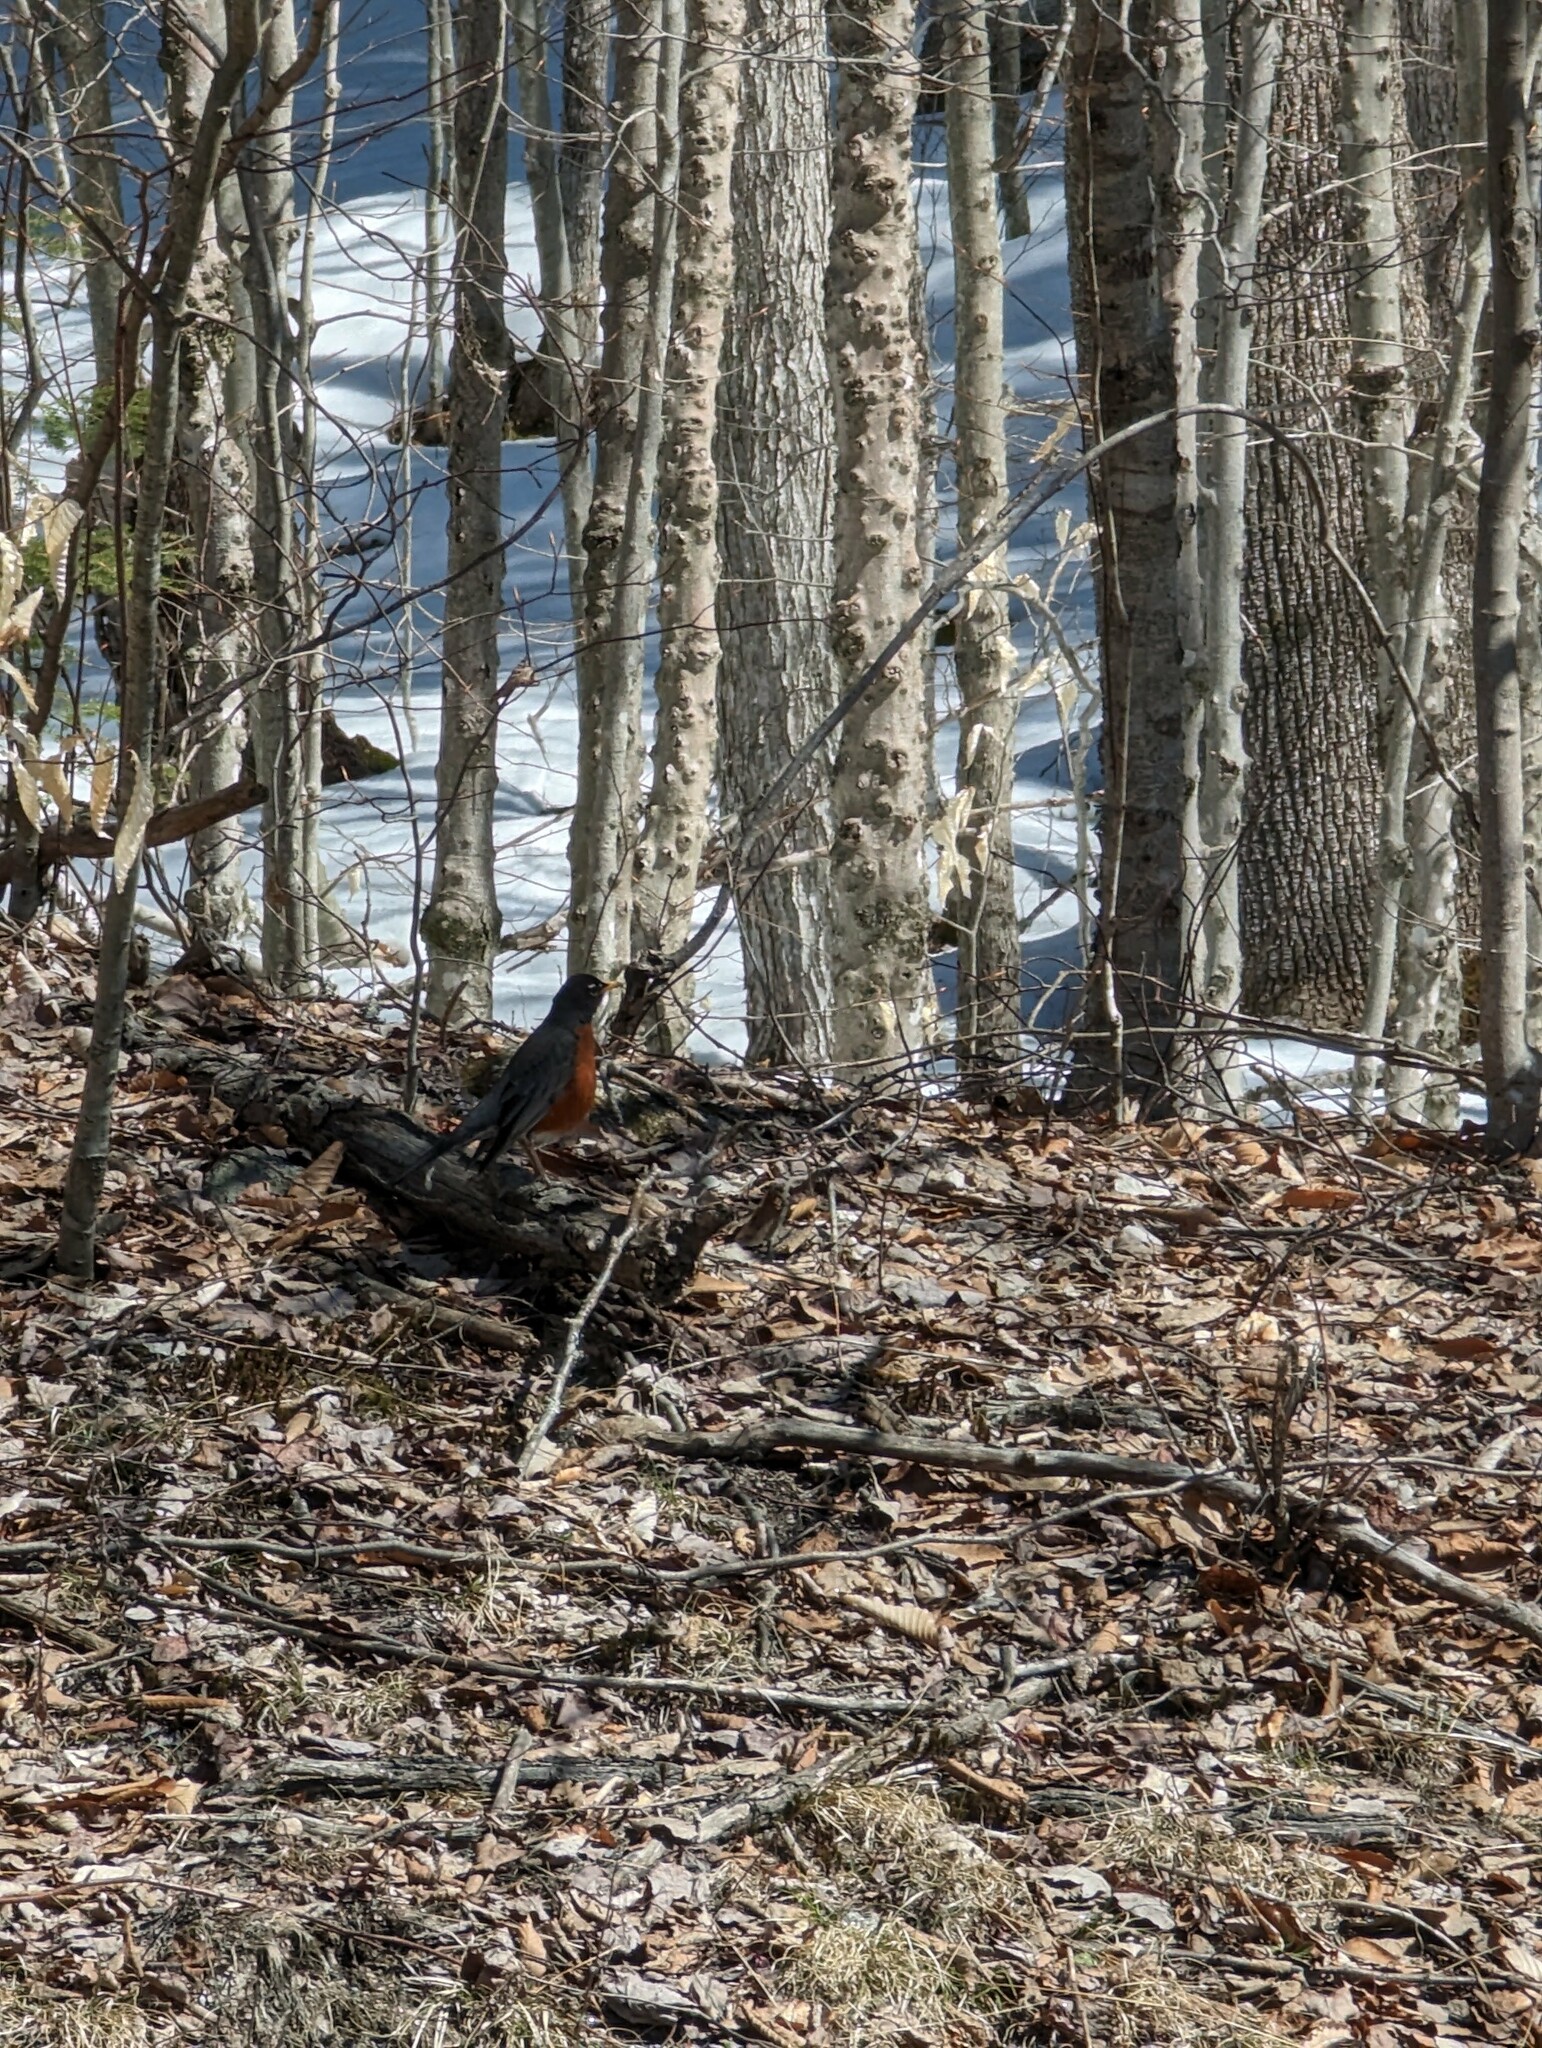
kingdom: Animalia
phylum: Chordata
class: Aves
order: Passeriformes
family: Turdidae
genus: Turdus
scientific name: Turdus migratorius
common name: American robin
